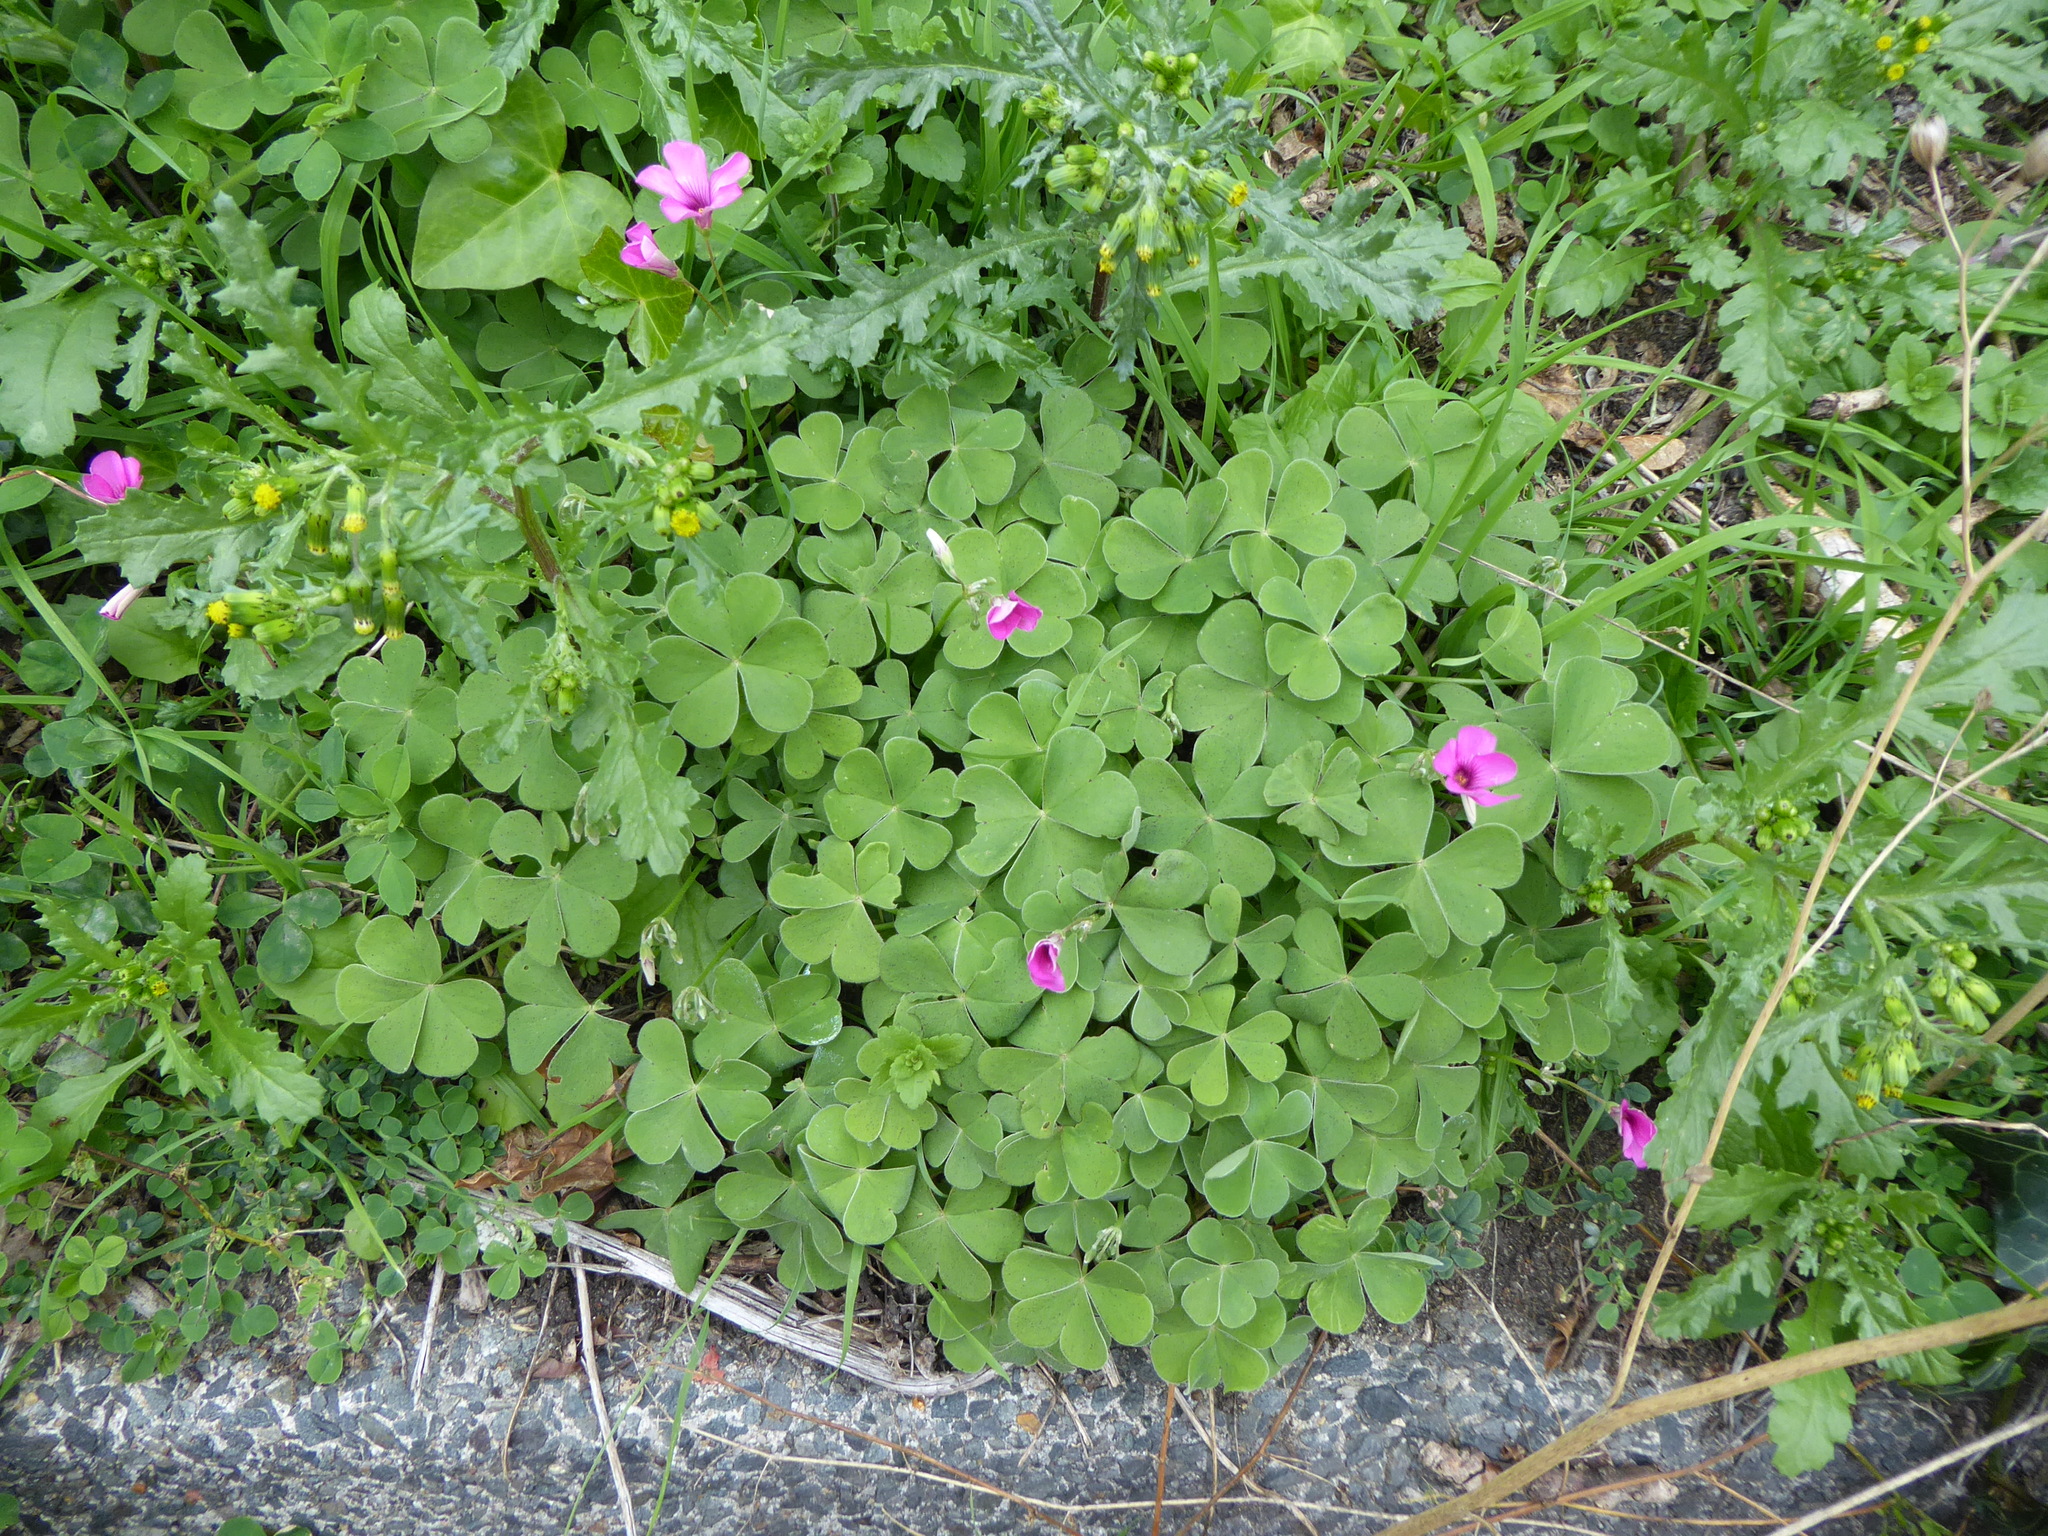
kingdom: Plantae
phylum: Tracheophyta
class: Magnoliopsida
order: Oxalidales
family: Oxalidaceae
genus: Oxalis
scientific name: Oxalis articulata
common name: Pink-sorrel
